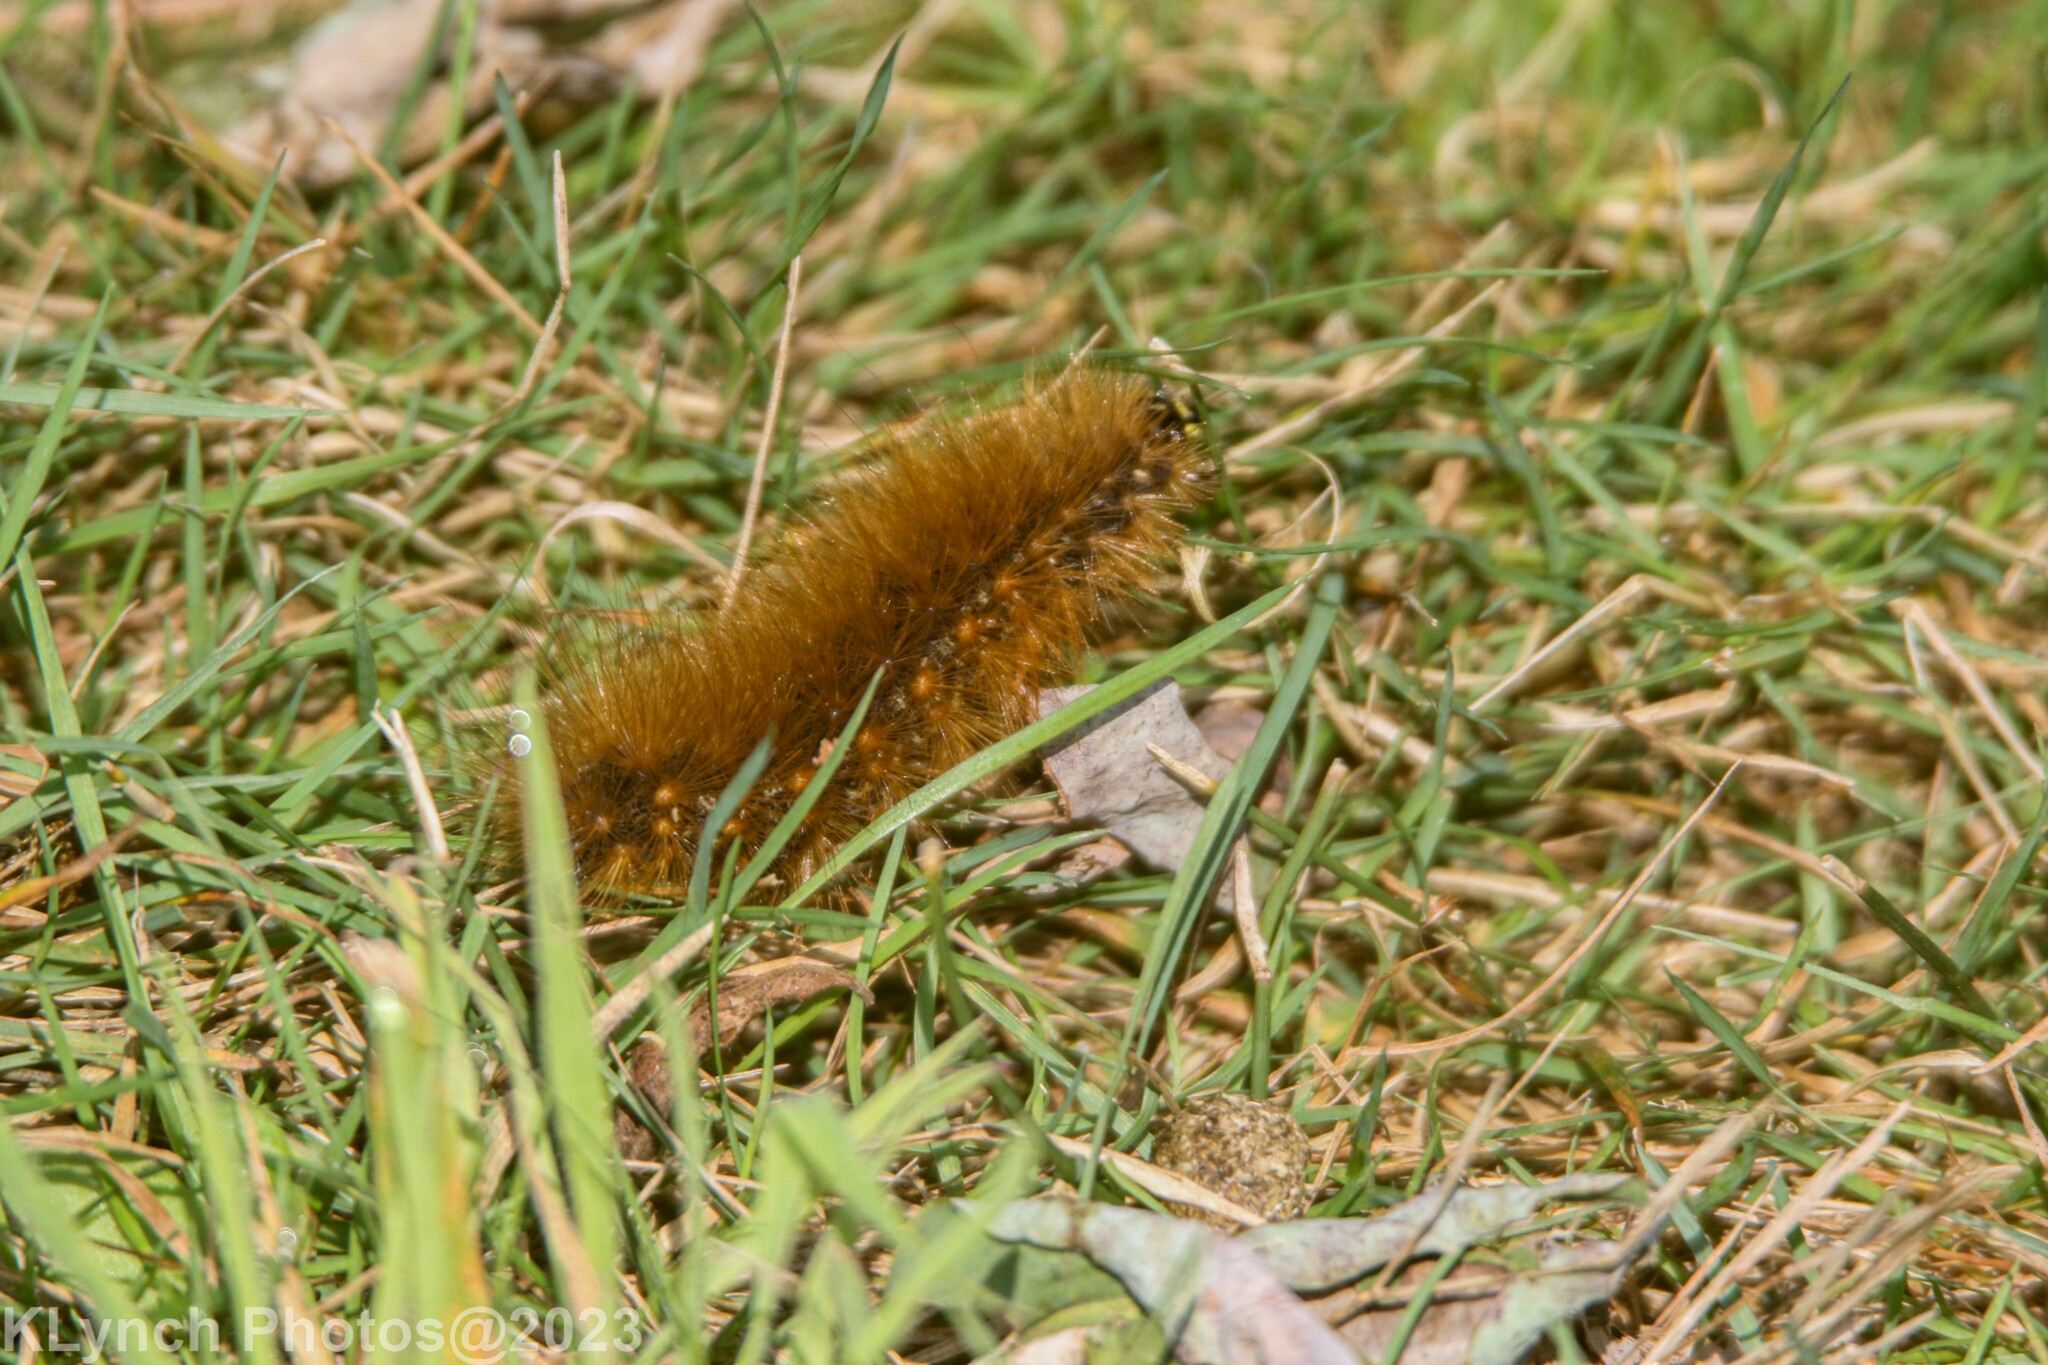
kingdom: Animalia
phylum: Arthropoda
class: Insecta
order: Lepidoptera
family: Erebidae
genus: Estigmene
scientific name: Estigmene acrea
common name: Salt marsh moth
